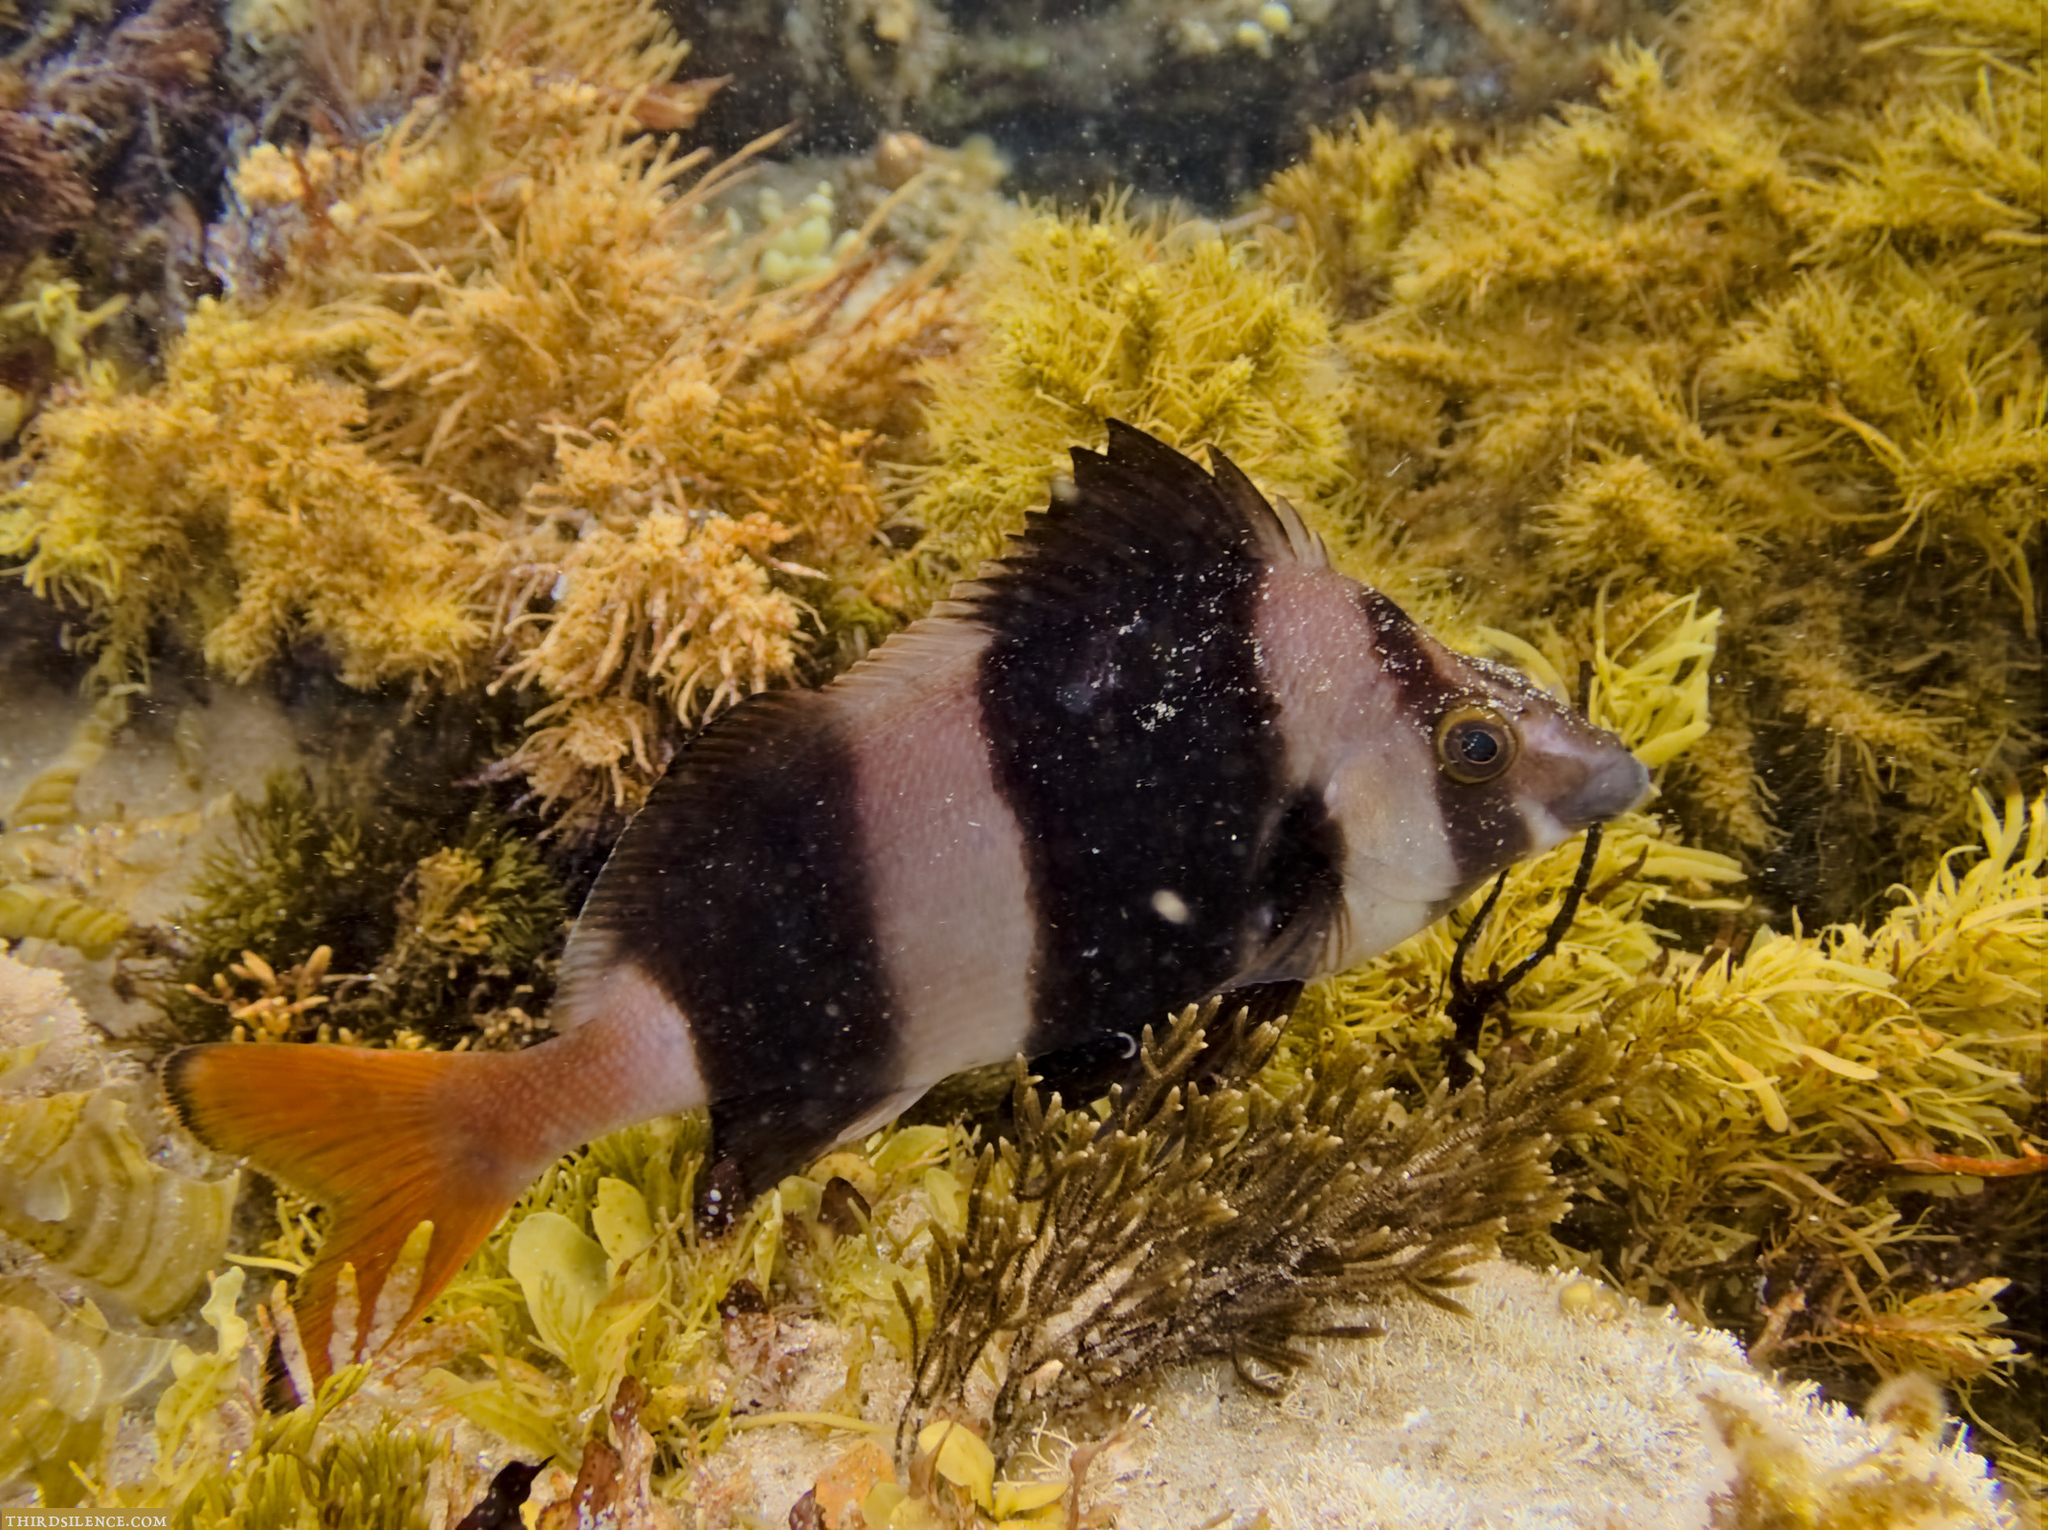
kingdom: Animalia
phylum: Chordata
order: Perciformes
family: Latridae
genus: Pseudogoniistius
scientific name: Pseudogoniistius nigripes
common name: Black-striped morwong
